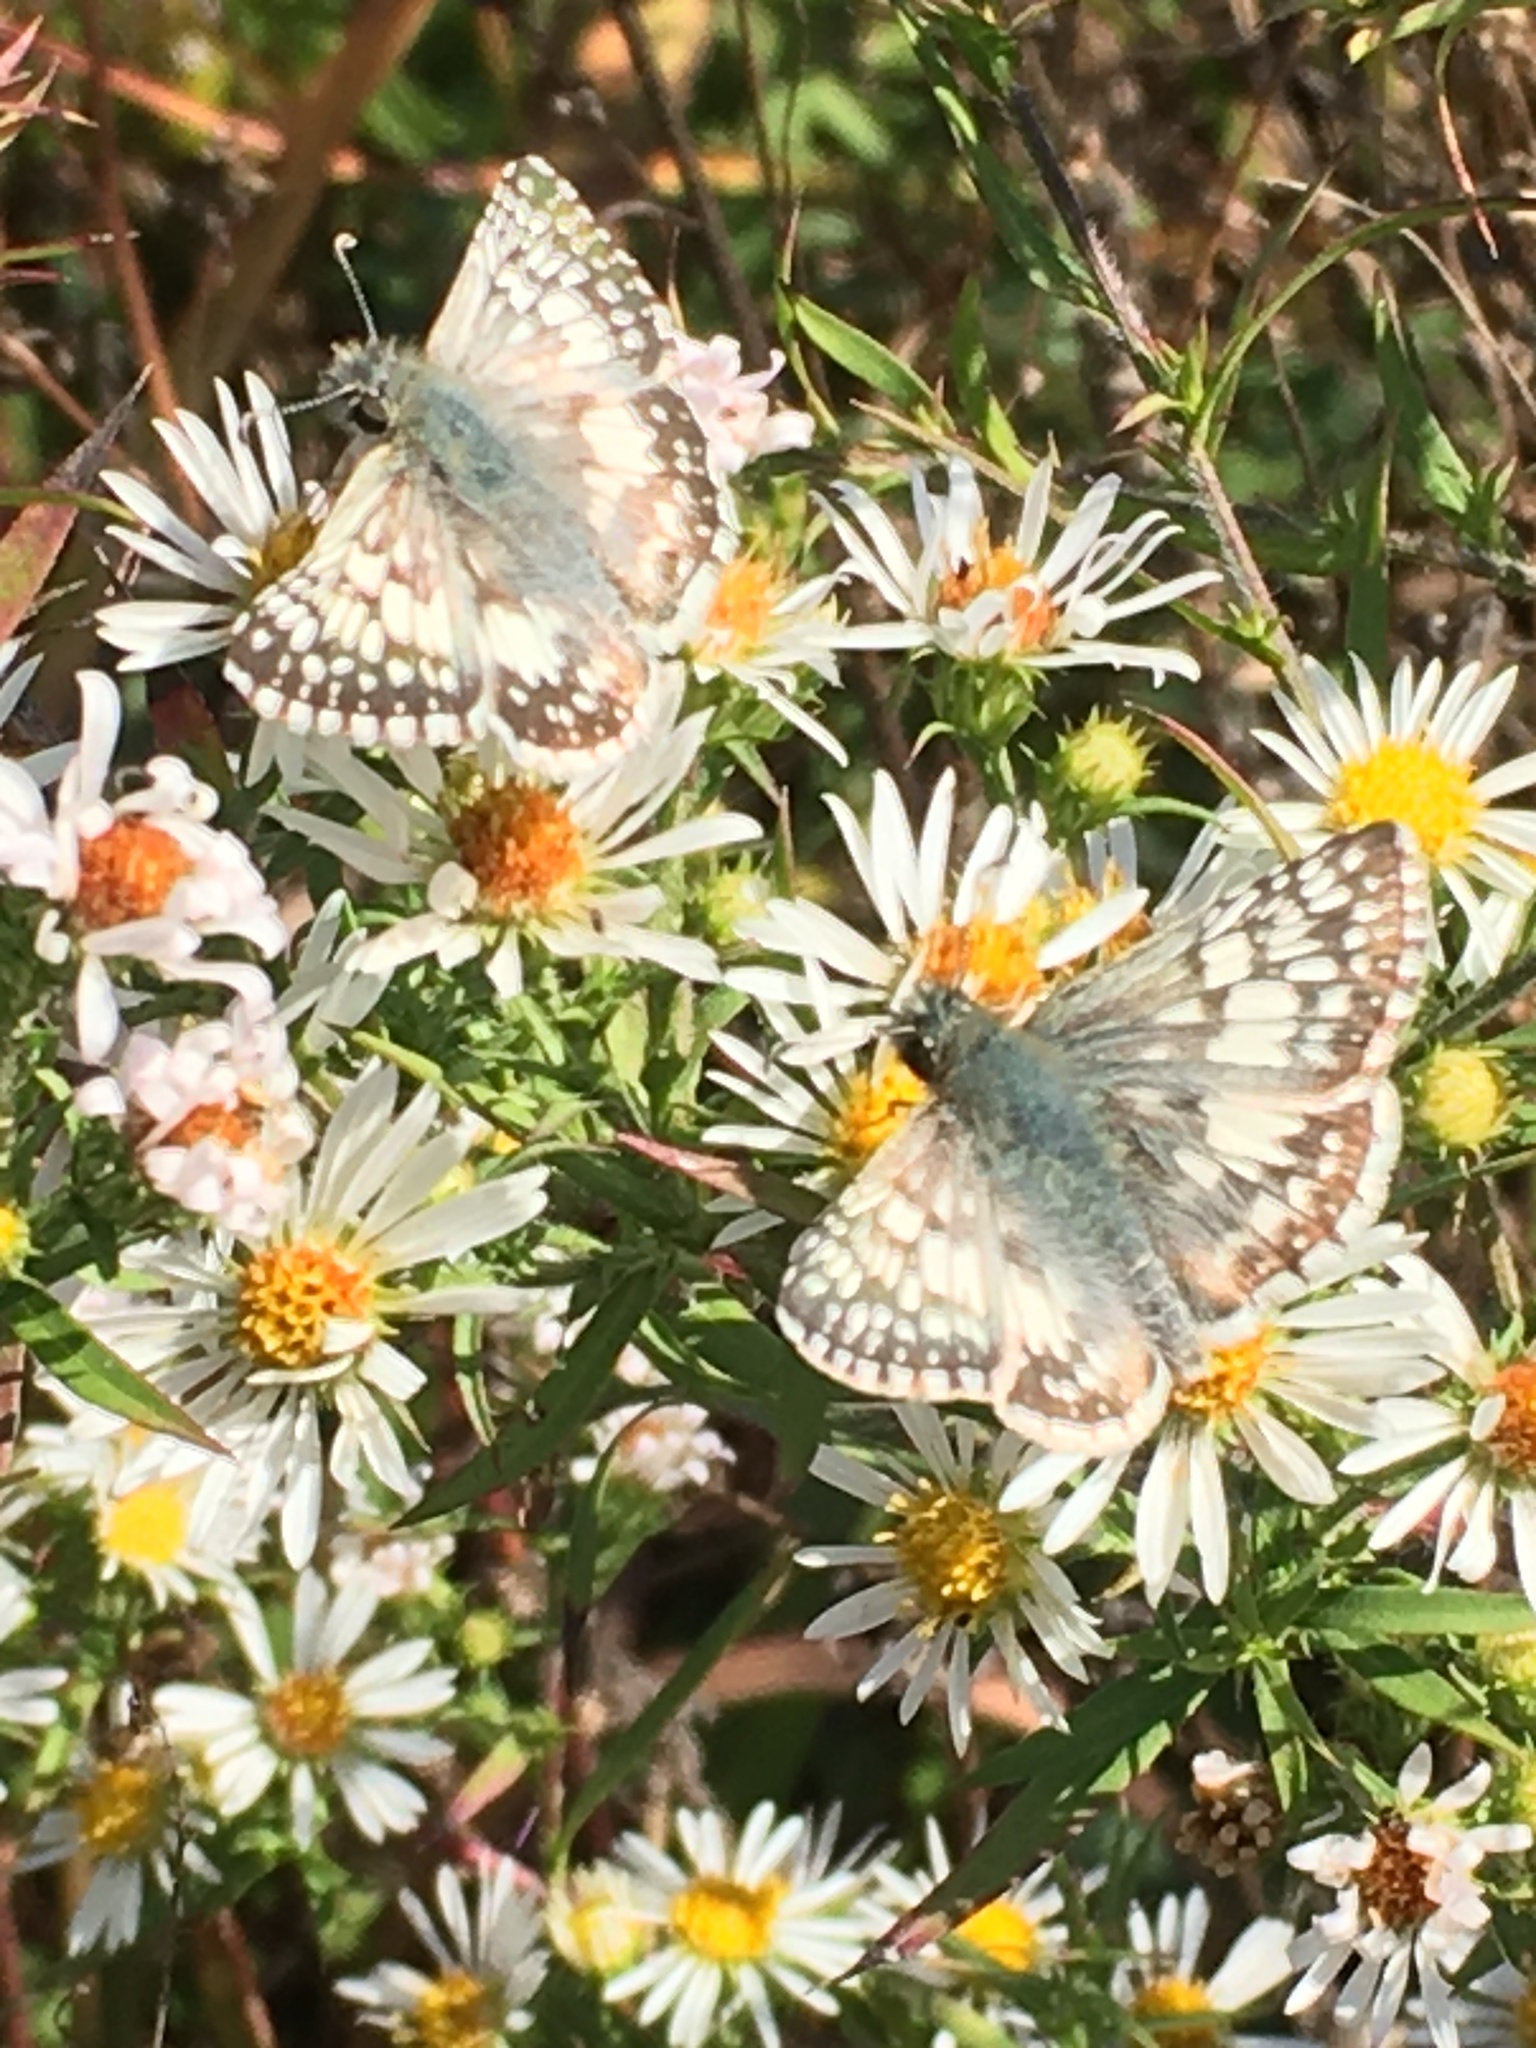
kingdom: Animalia
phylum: Arthropoda
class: Insecta
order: Lepidoptera
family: Hesperiidae
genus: Burnsius
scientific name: Burnsius
